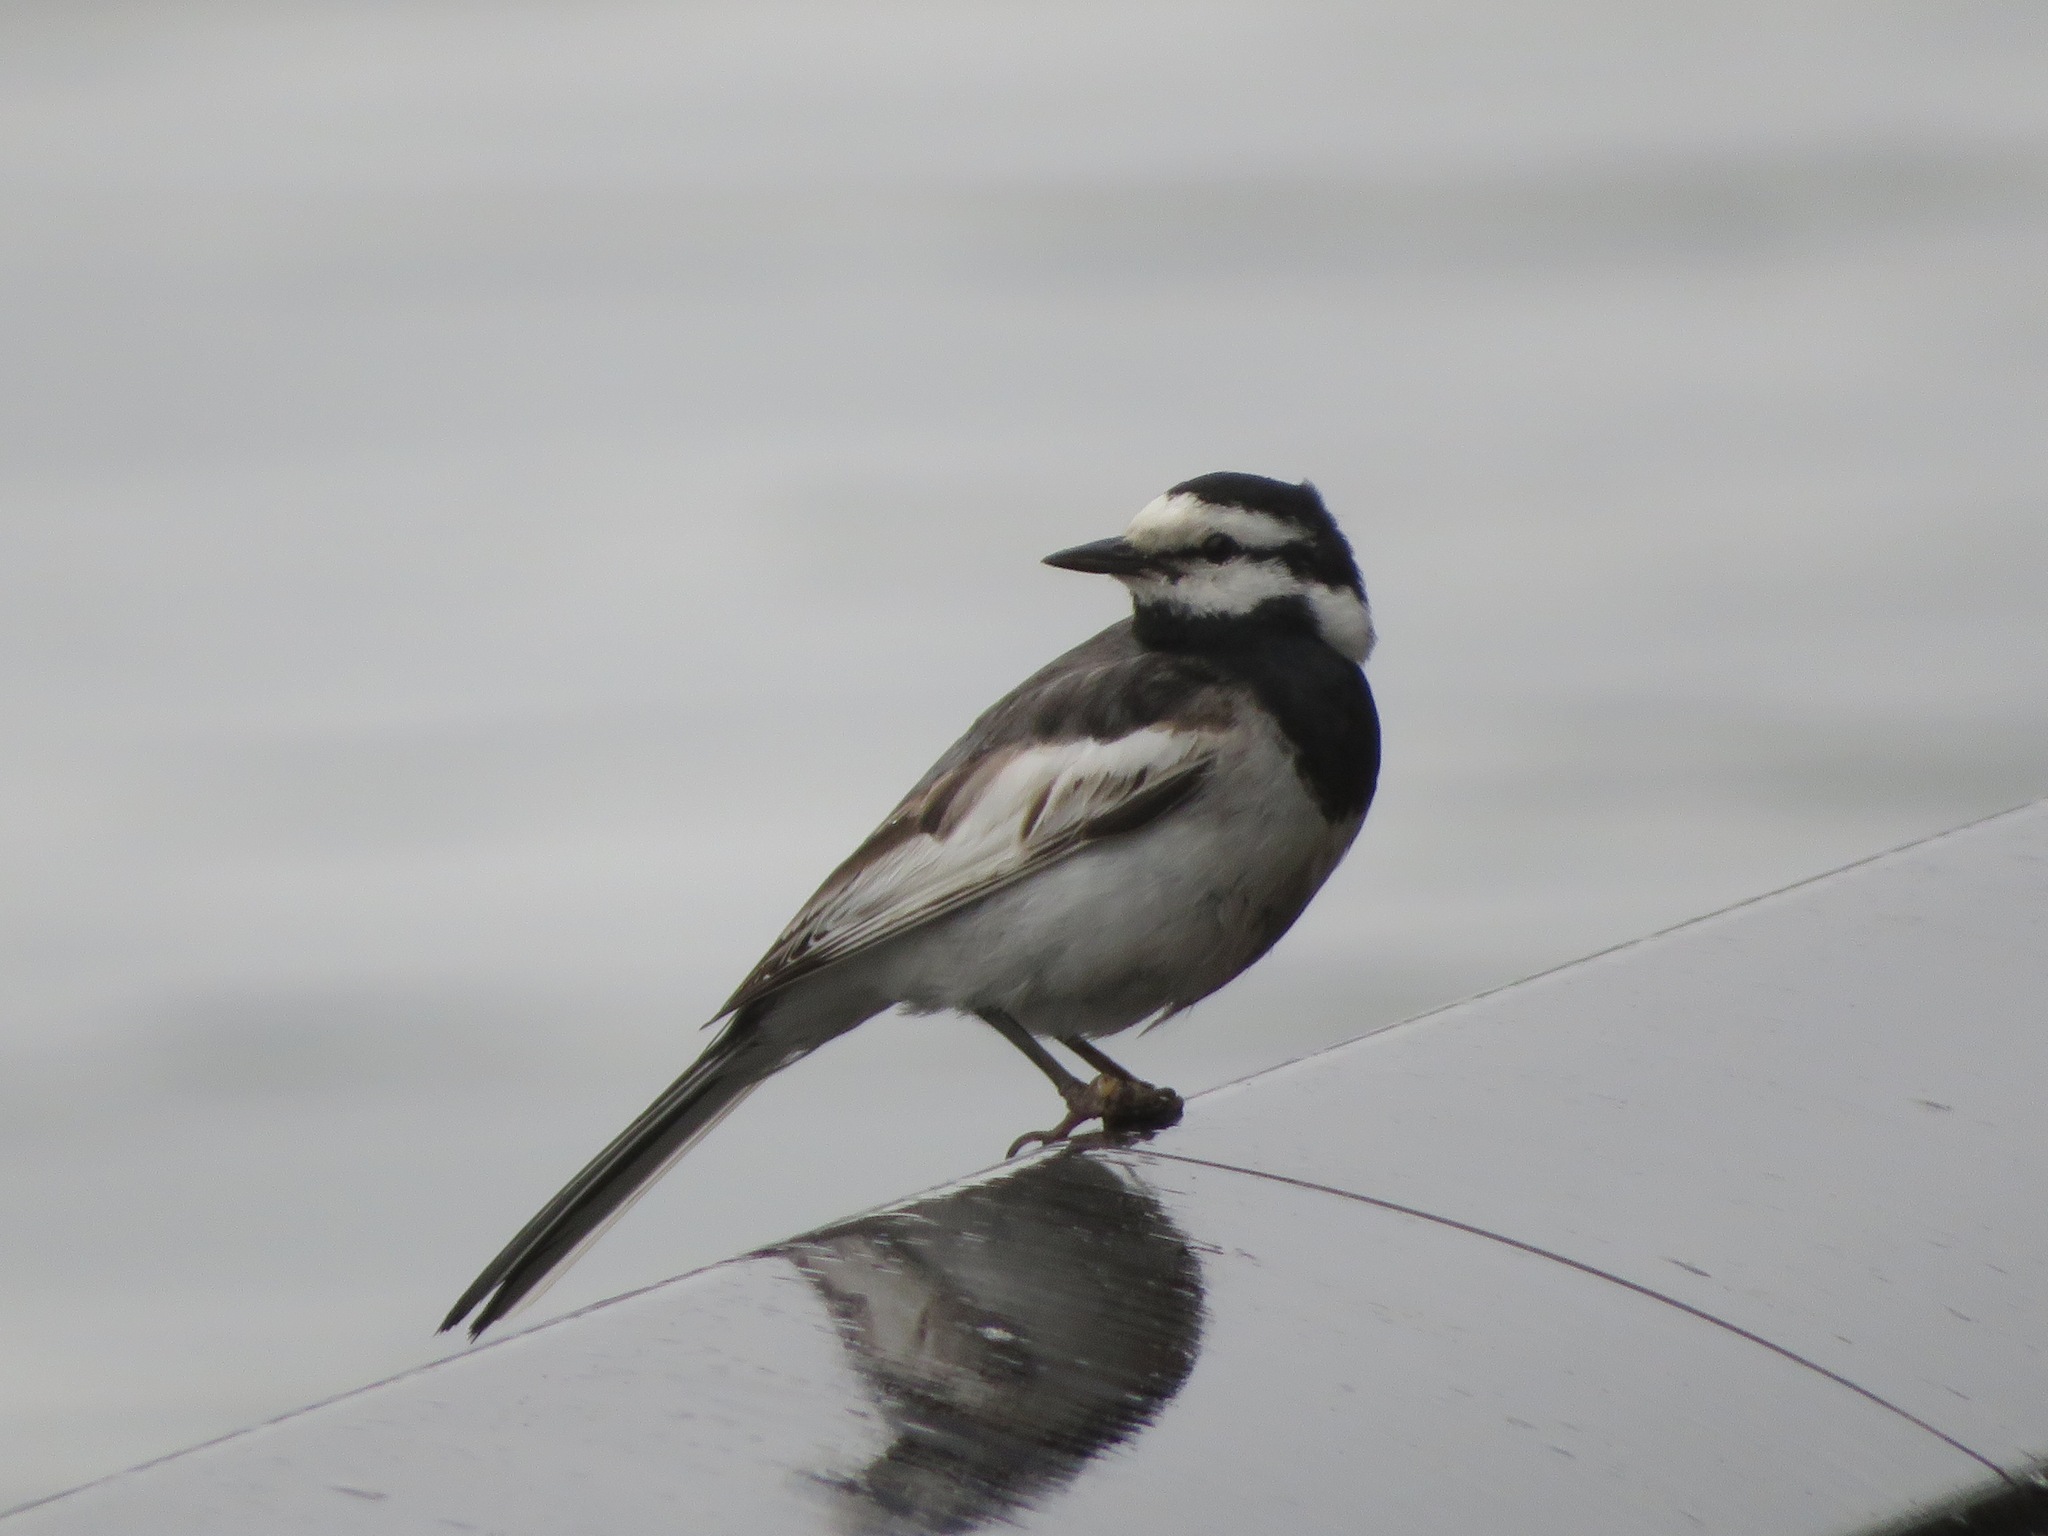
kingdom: Animalia
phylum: Chordata
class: Aves
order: Passeriformes
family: Motacillidae
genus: Motacilla
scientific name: Motacilla alba
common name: White wagtail
